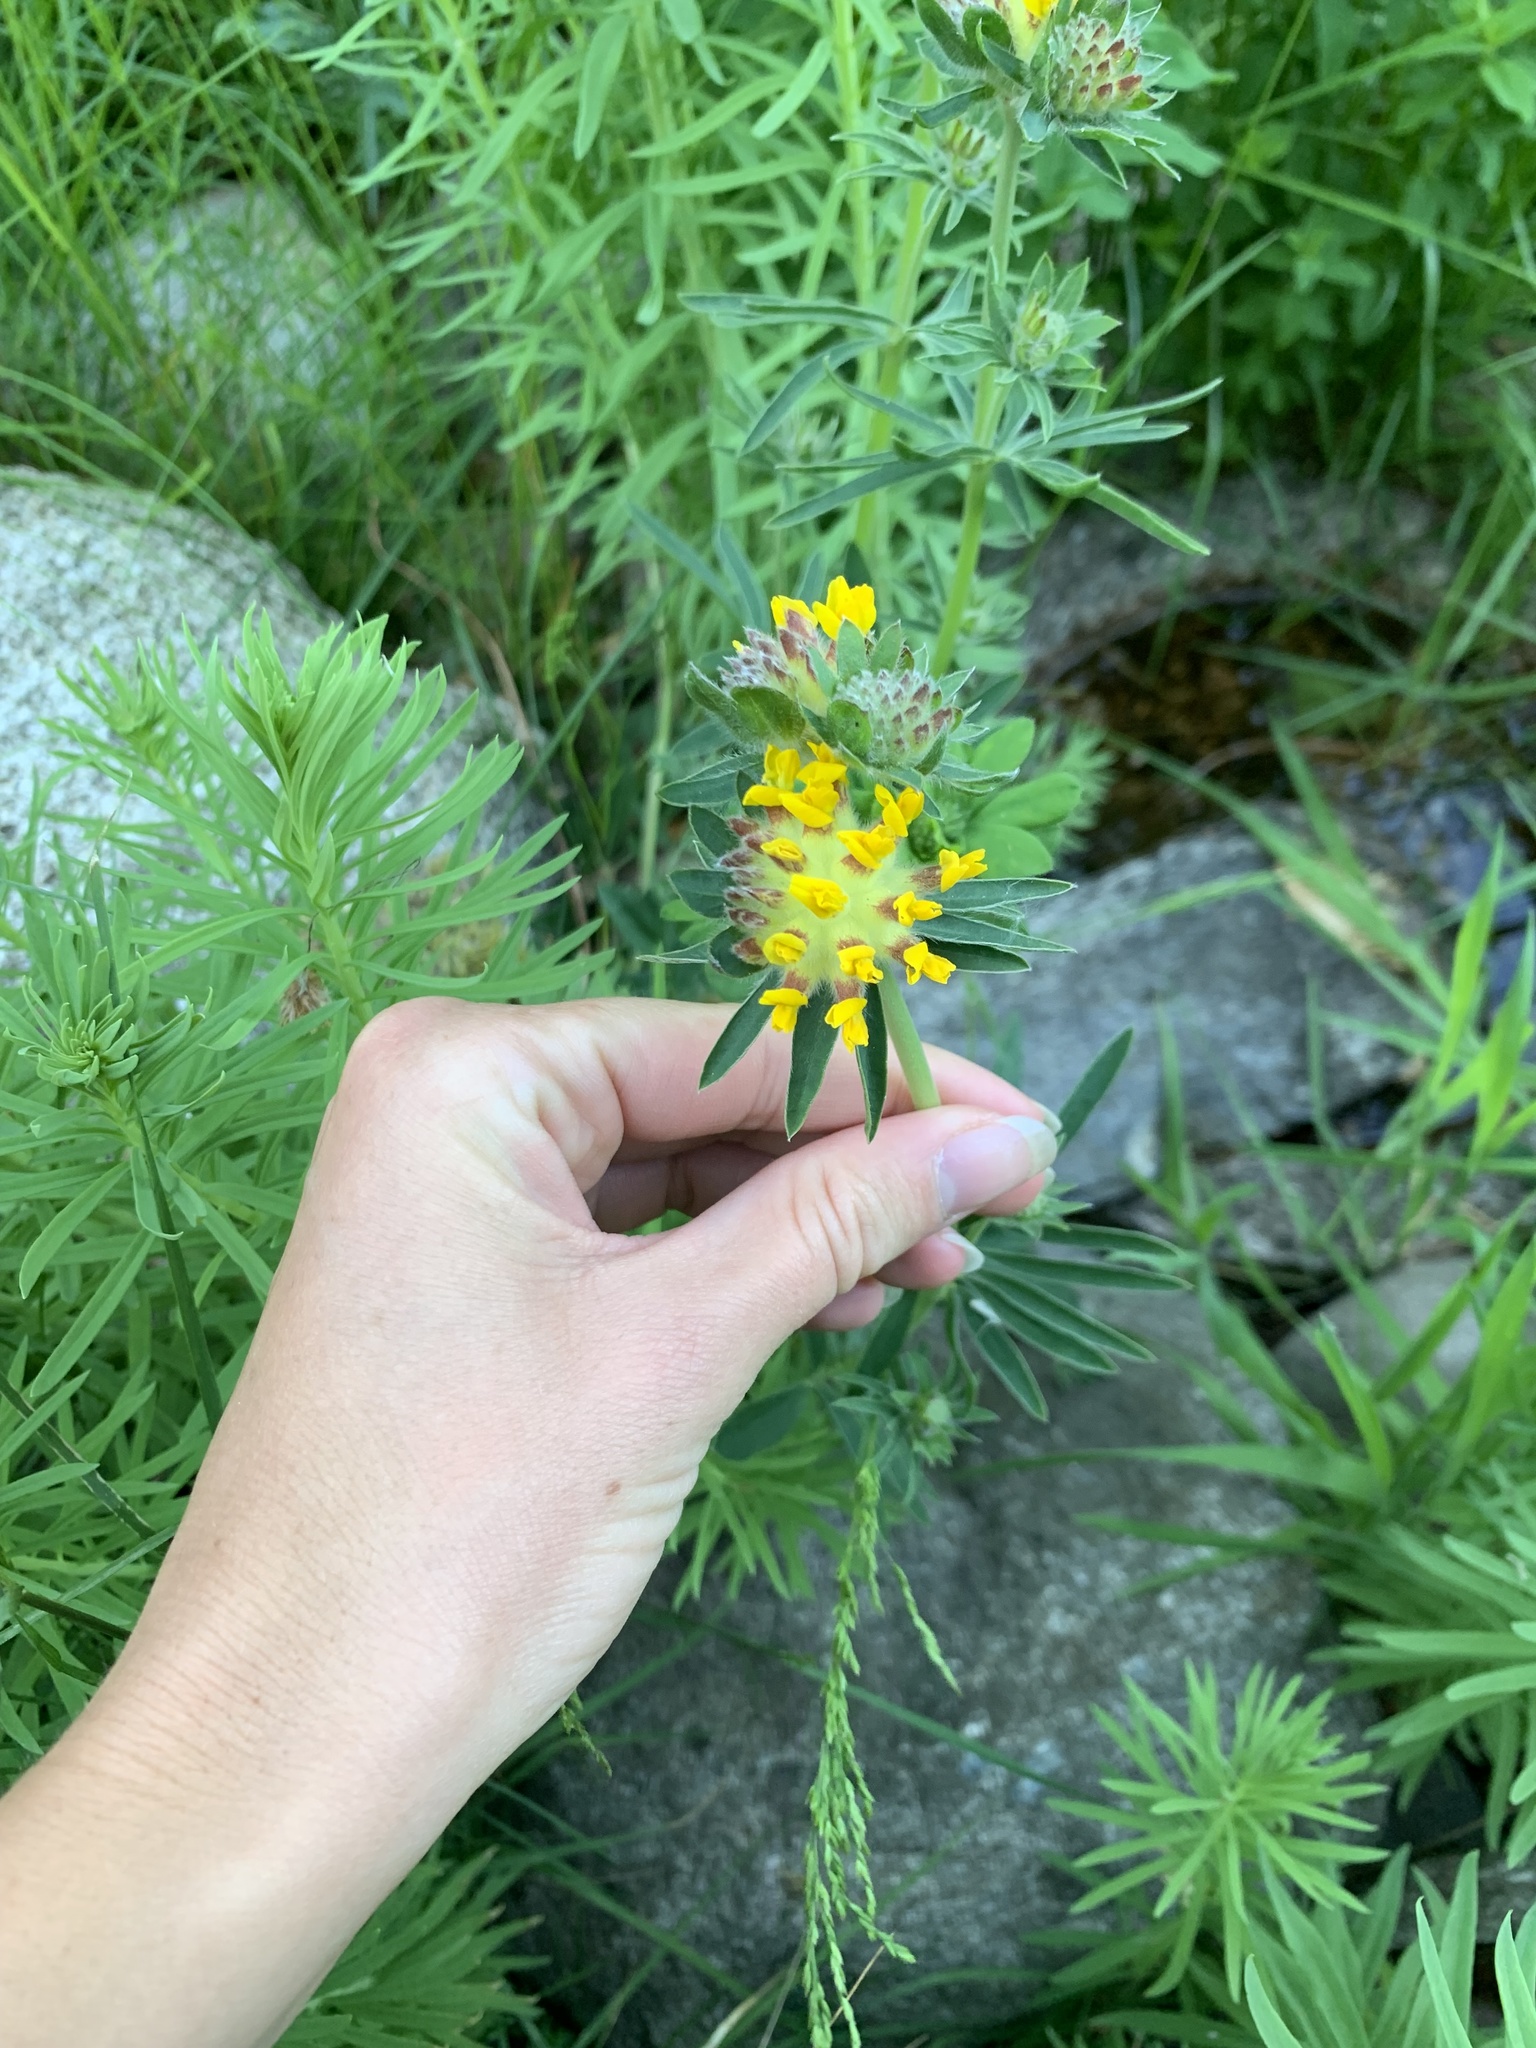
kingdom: Plantae
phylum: Tracheophyta
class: Magnoliopsida
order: Fabales
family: Fabaceae
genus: Anthyllis
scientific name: Anthyllis vulneraria
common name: Kidney vetch
